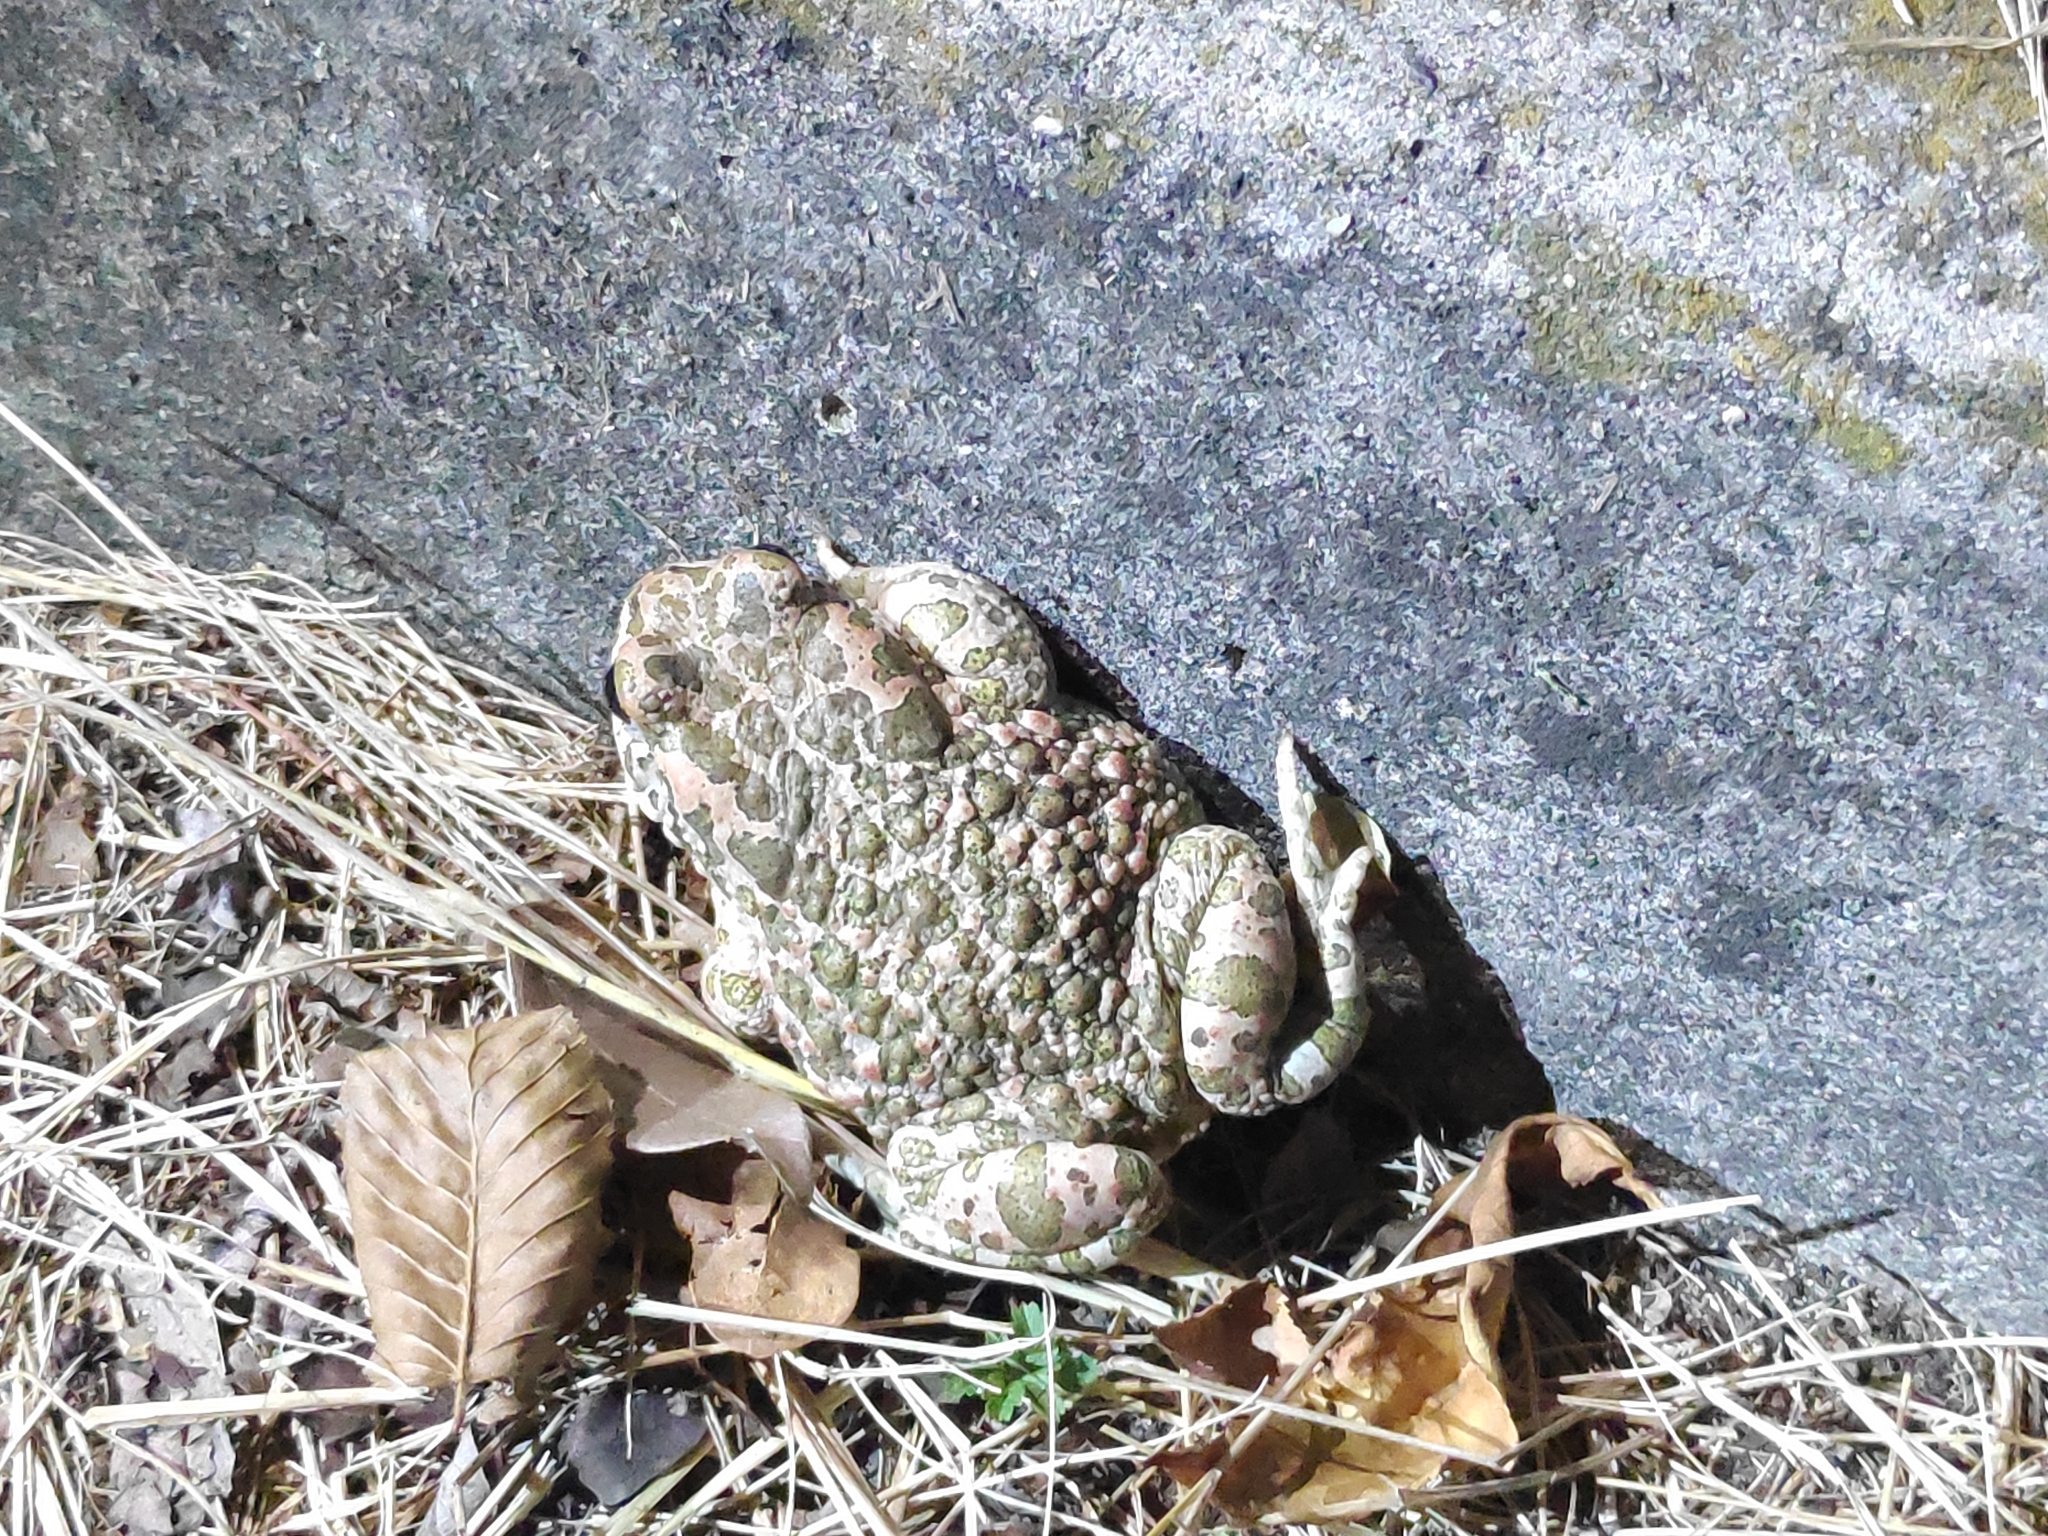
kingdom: Animalia
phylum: Chordata
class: Amphibia
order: Anura
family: Bufonidae
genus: Bufotes
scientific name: Bufotes viridis
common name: European green toad
